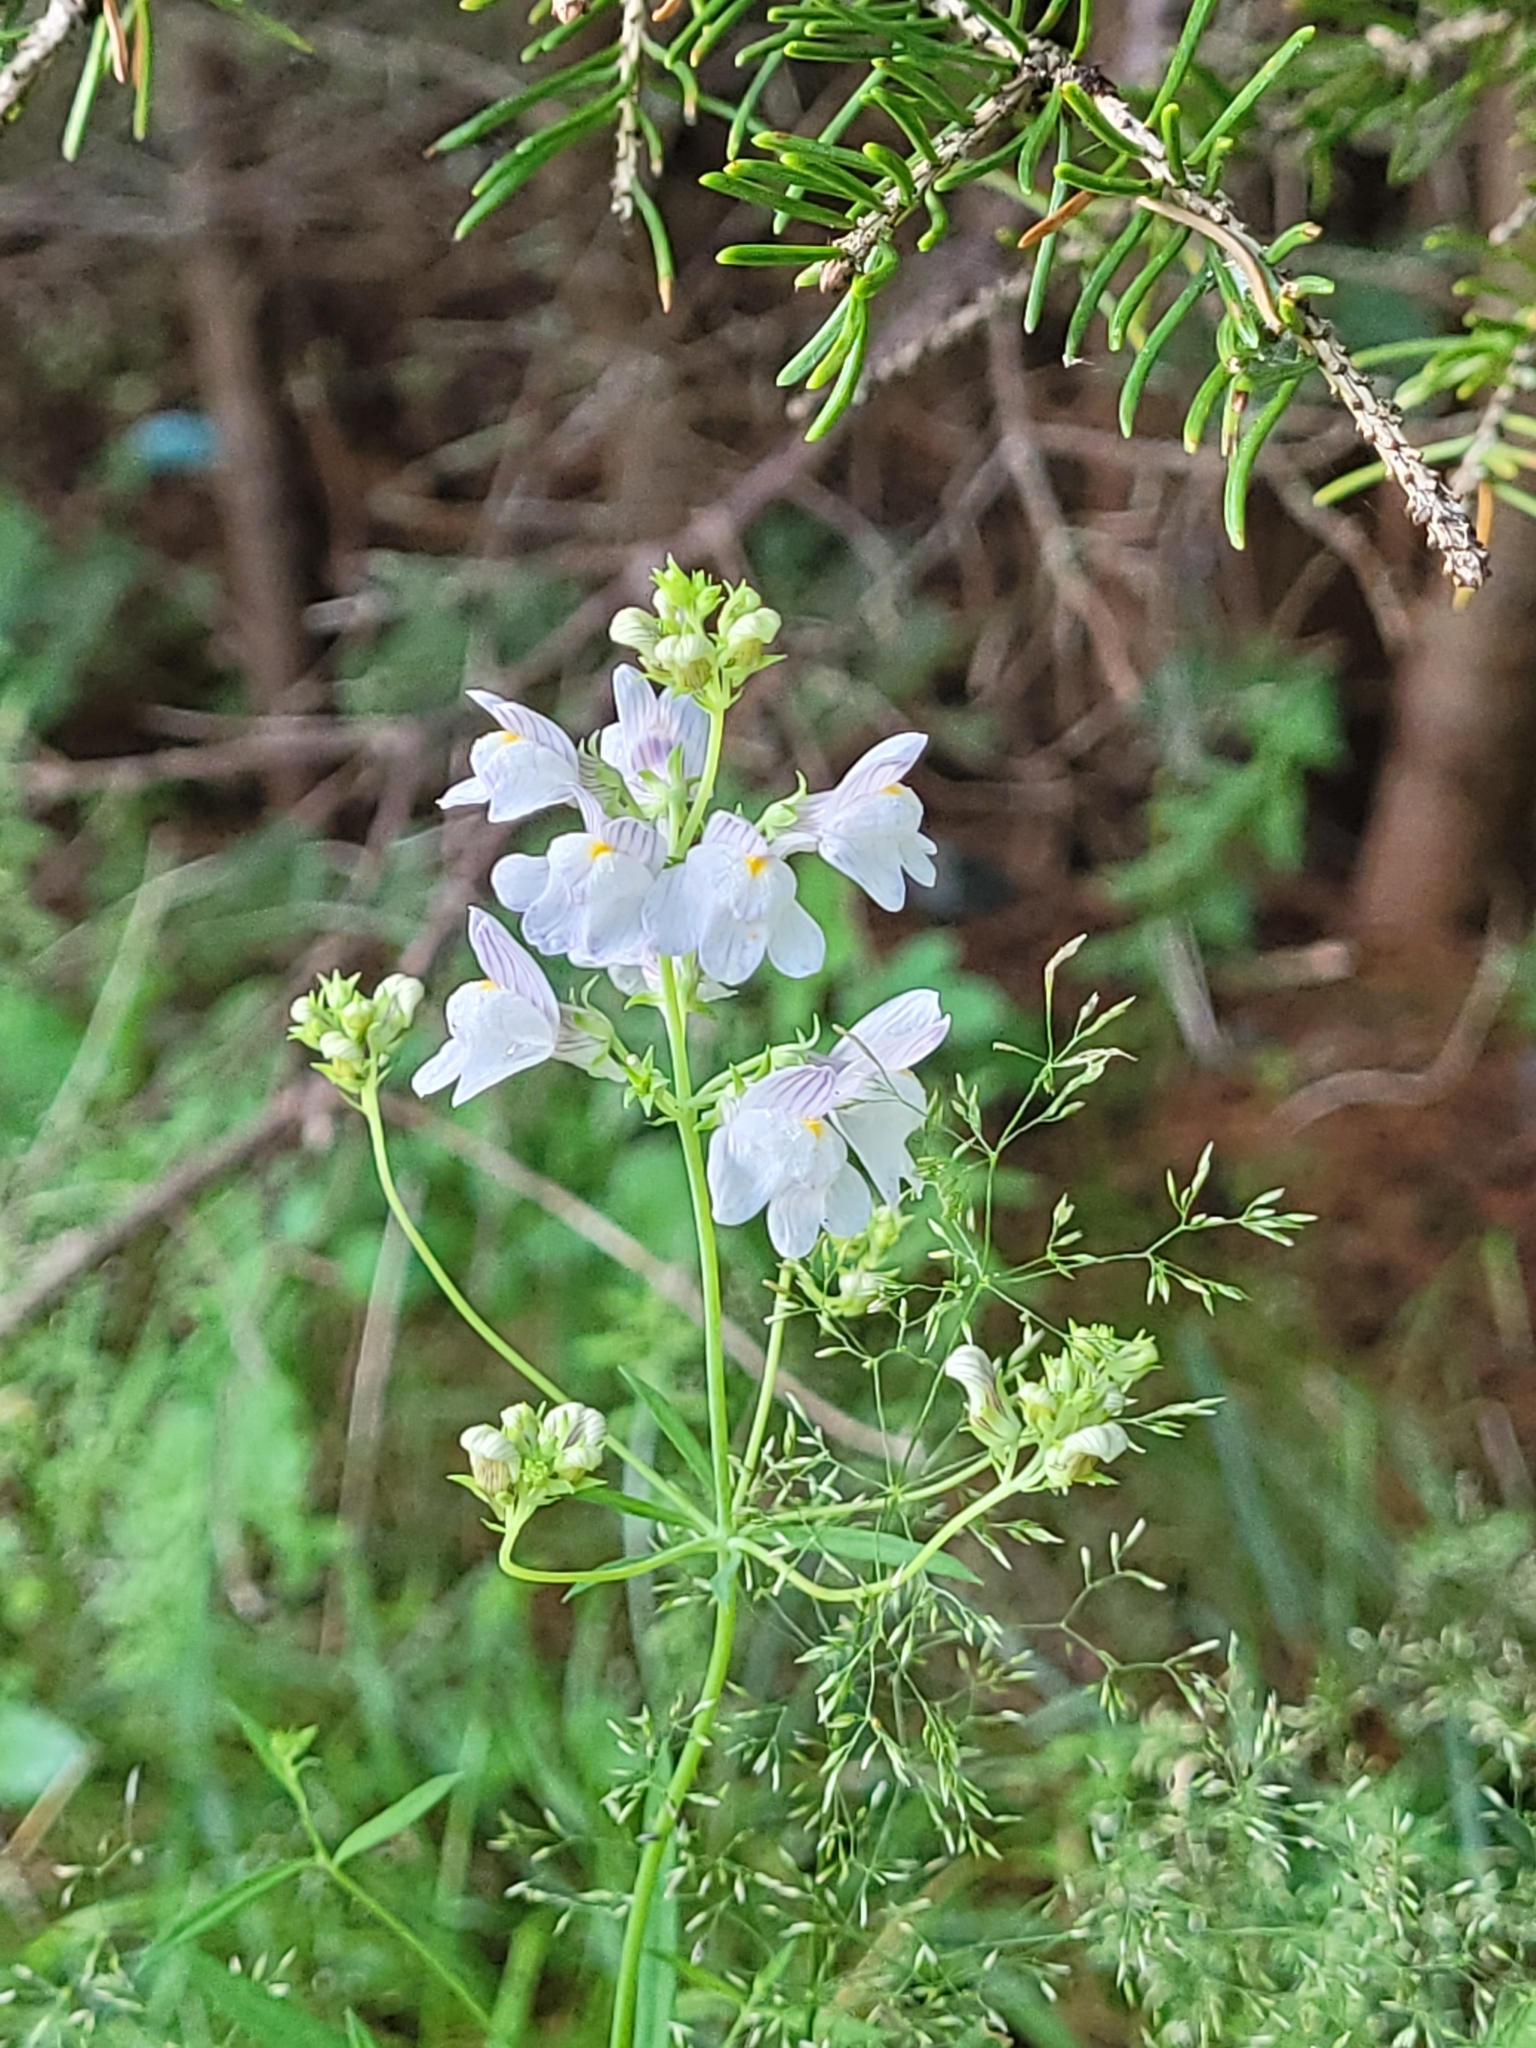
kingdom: Plantae
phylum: Tracheophyta
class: Magnoliopsida
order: Lamiales
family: Plantaginaceae
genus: Linaria
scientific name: Linaria repens
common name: Pale toadflax
